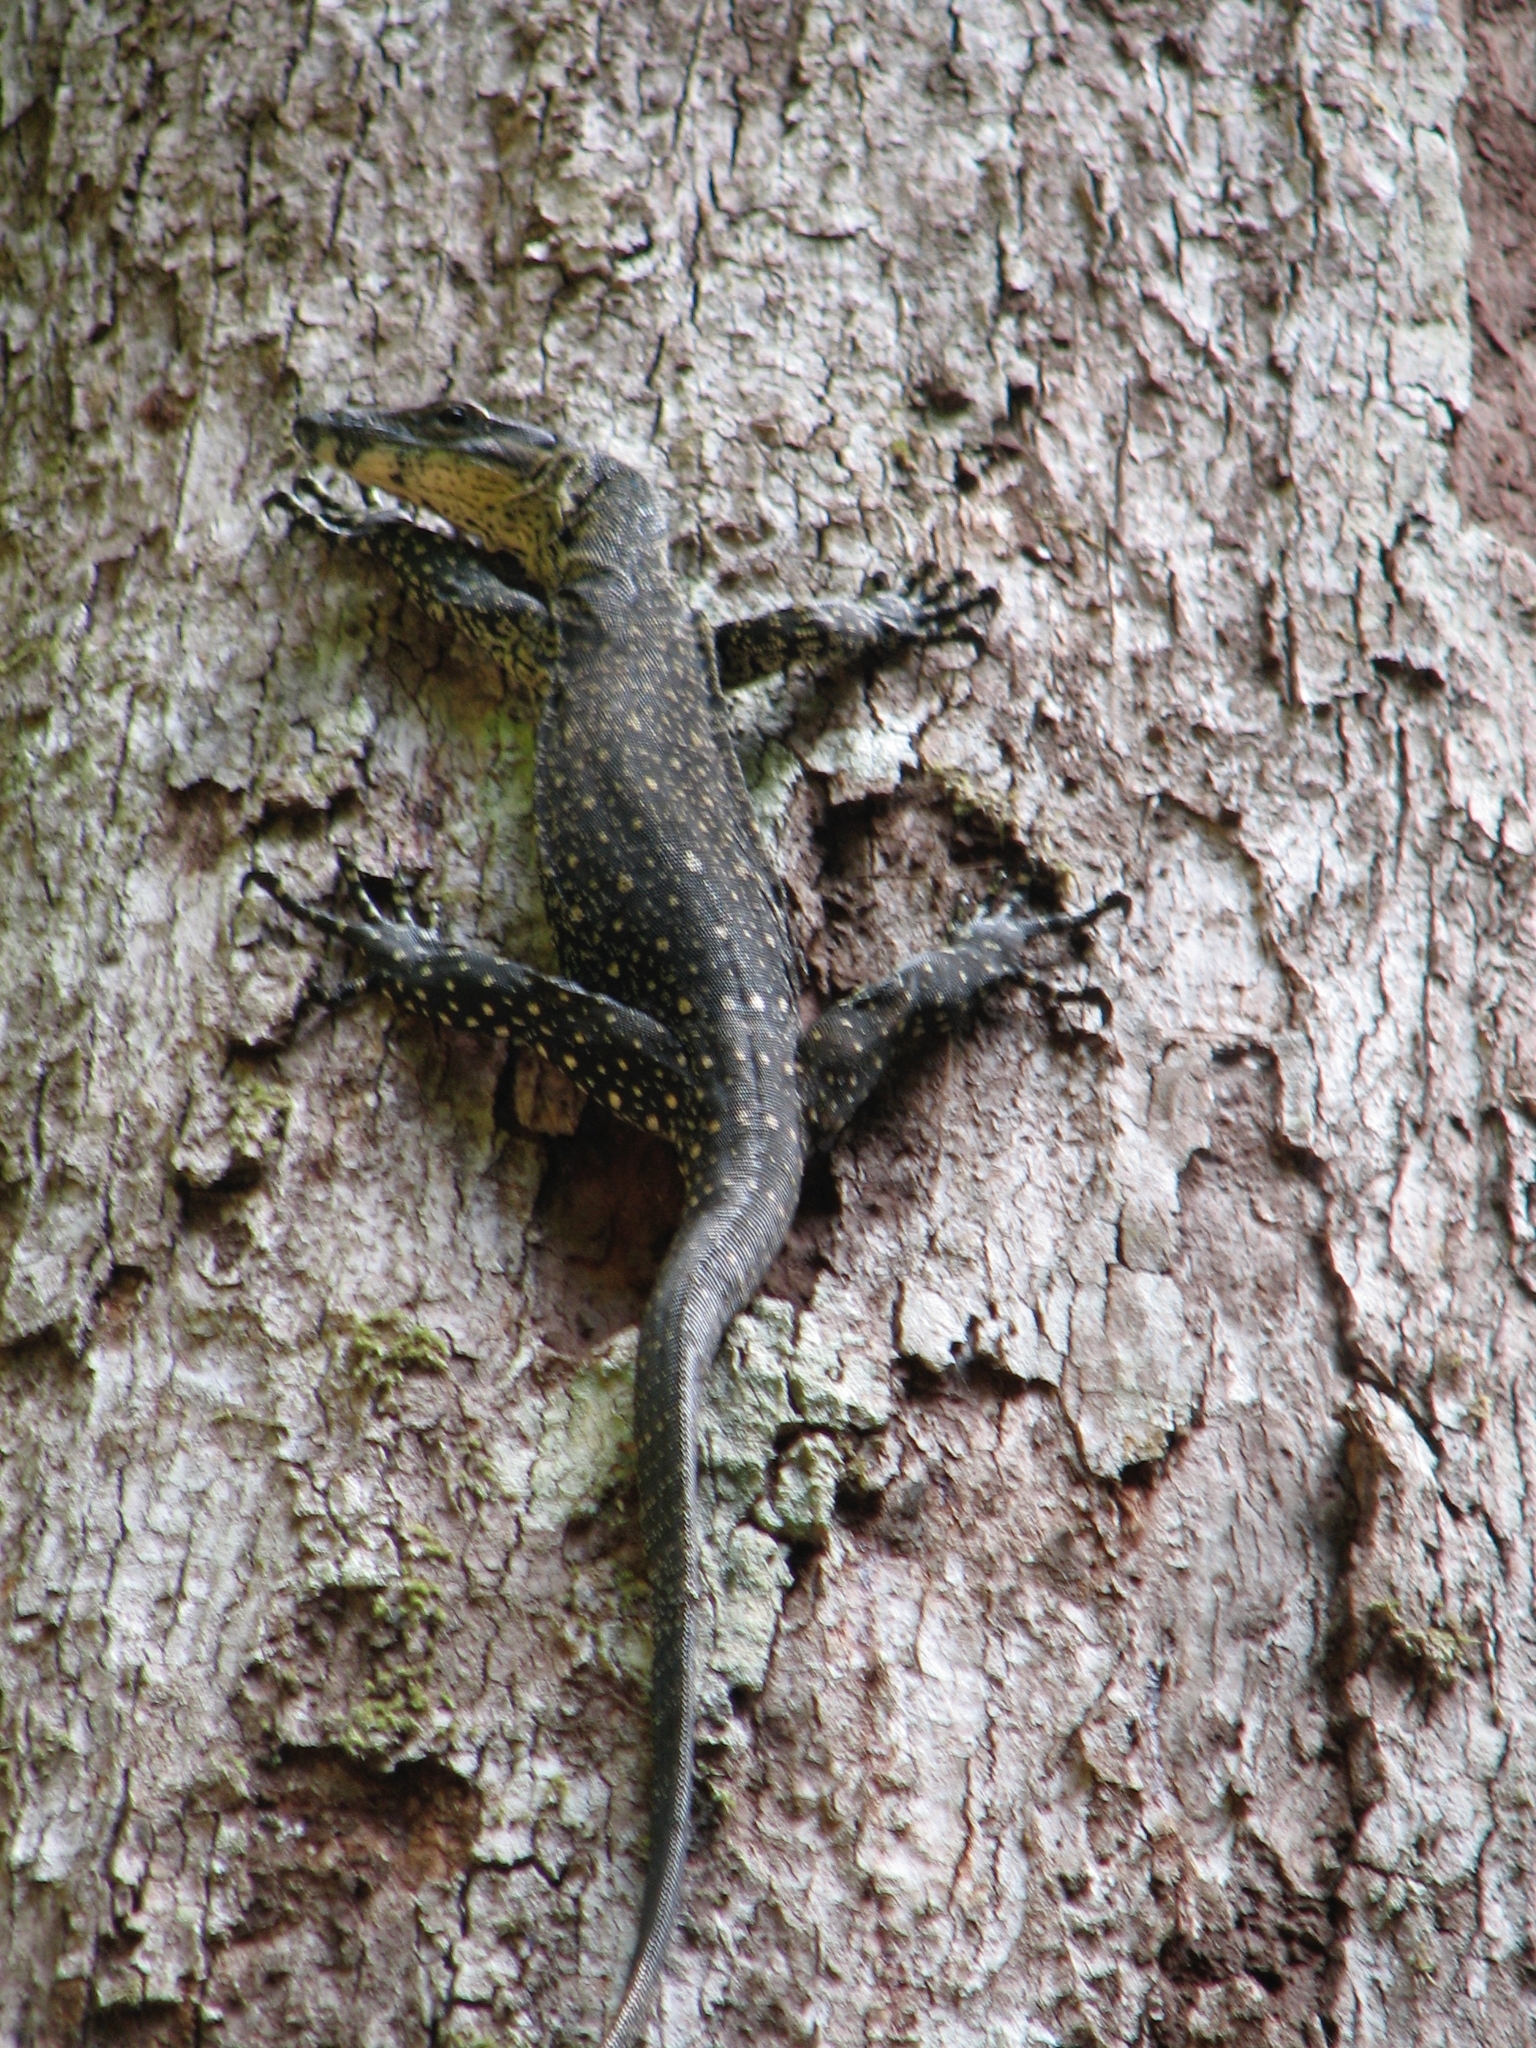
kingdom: Animalia
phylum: Chordata
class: Squamata
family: Varanidae
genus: Varanus
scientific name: Varanus varius
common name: Lace monitor
